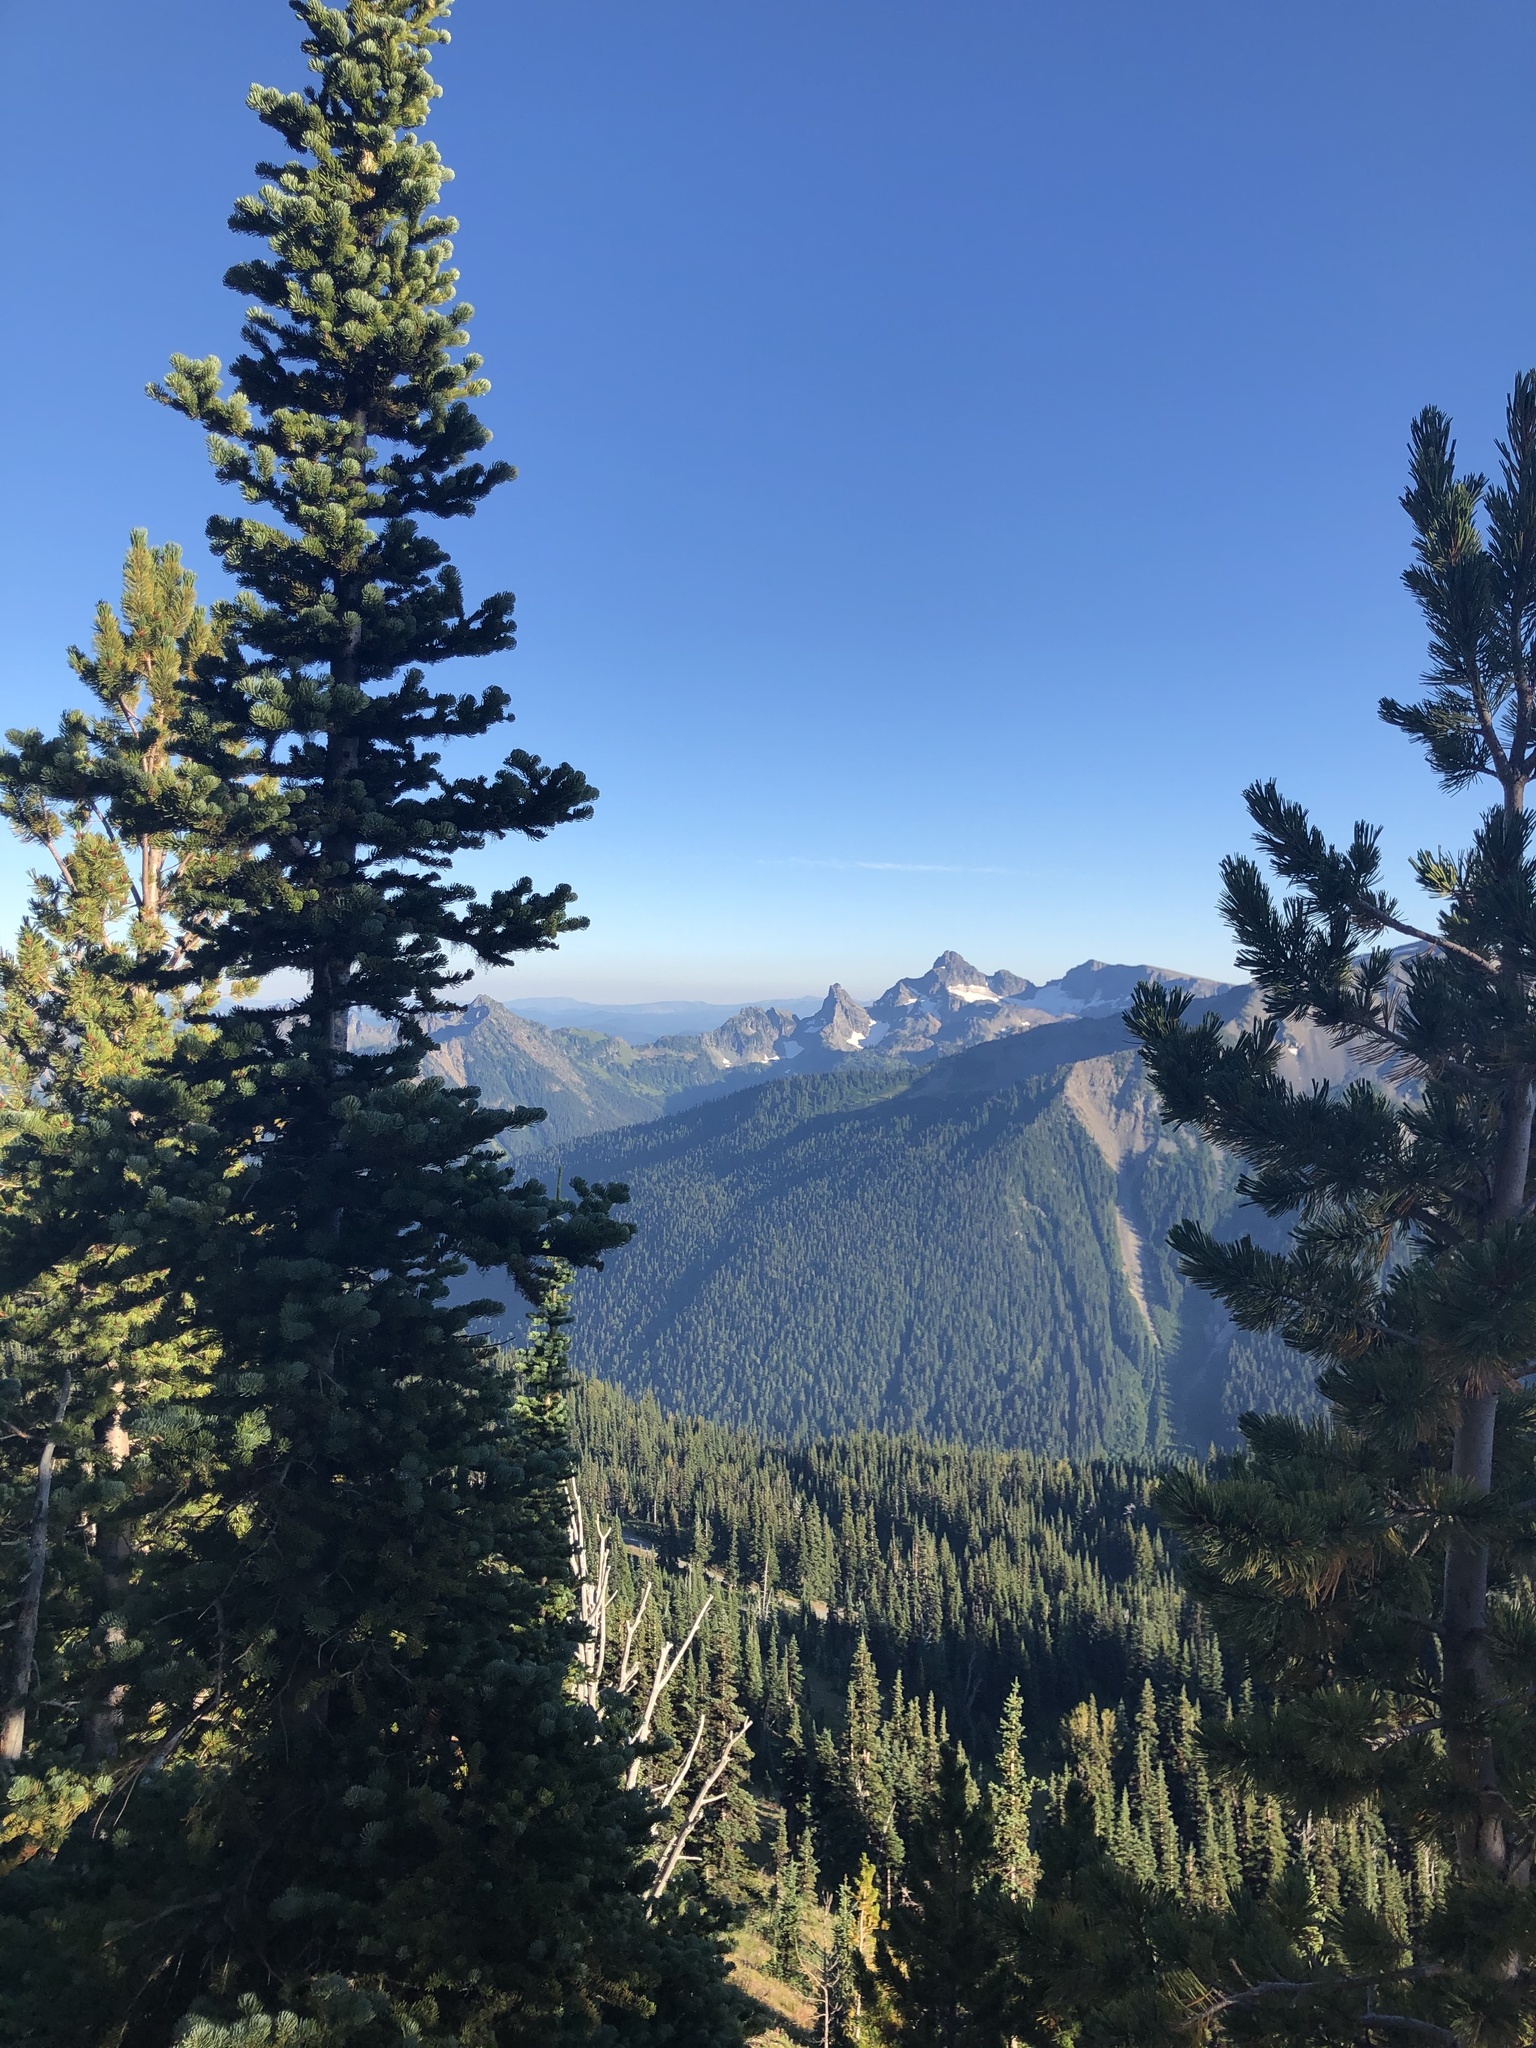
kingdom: Plantae
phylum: Tracheophyta
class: Pinopsida
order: Pinales
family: Pinaceae
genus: Pinus
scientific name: Pinus albicaulis
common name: Whitebark pine
